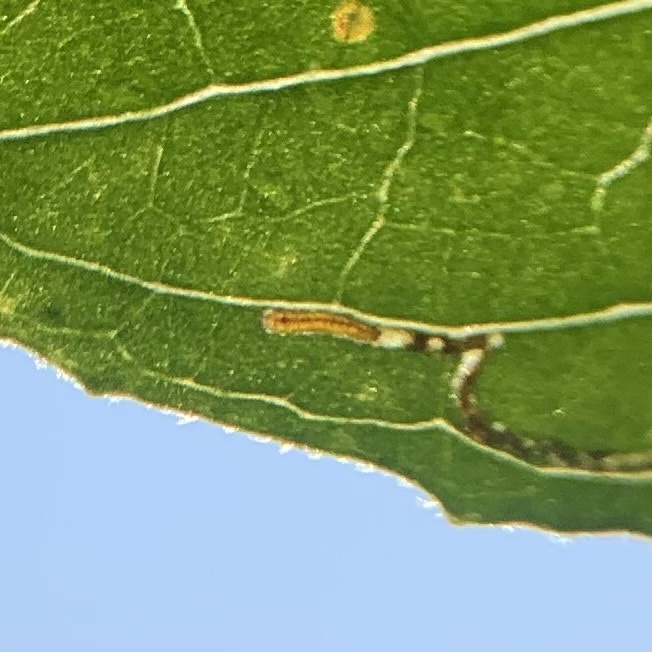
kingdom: Animalia
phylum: Arthropoda
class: Insecta
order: Lepidoptera
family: Momphidae
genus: Mompha
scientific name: Mompha argentimaculella
